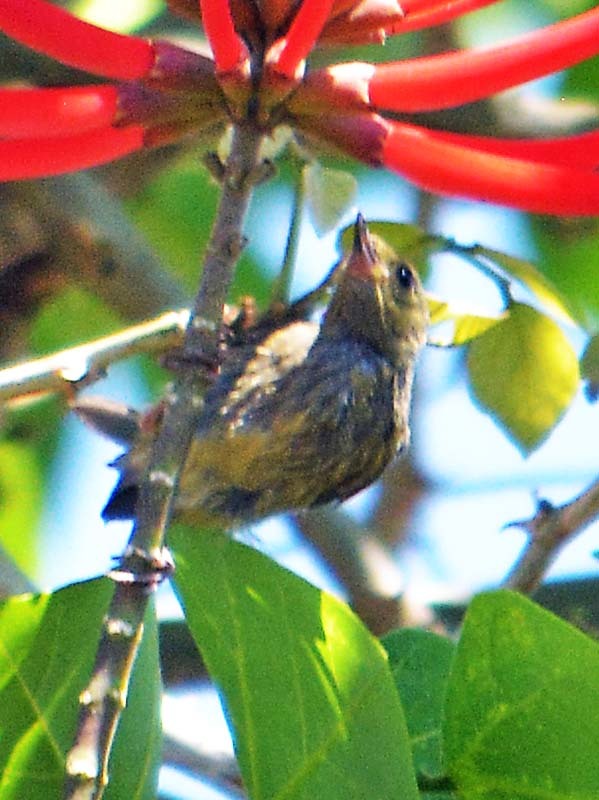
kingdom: Animalia
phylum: Chordata
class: Aves
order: Passeriformes
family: Thraupidae
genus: Diglossa
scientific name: Diglossa baritula
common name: Cinnamon-bellied flowerpiercer
